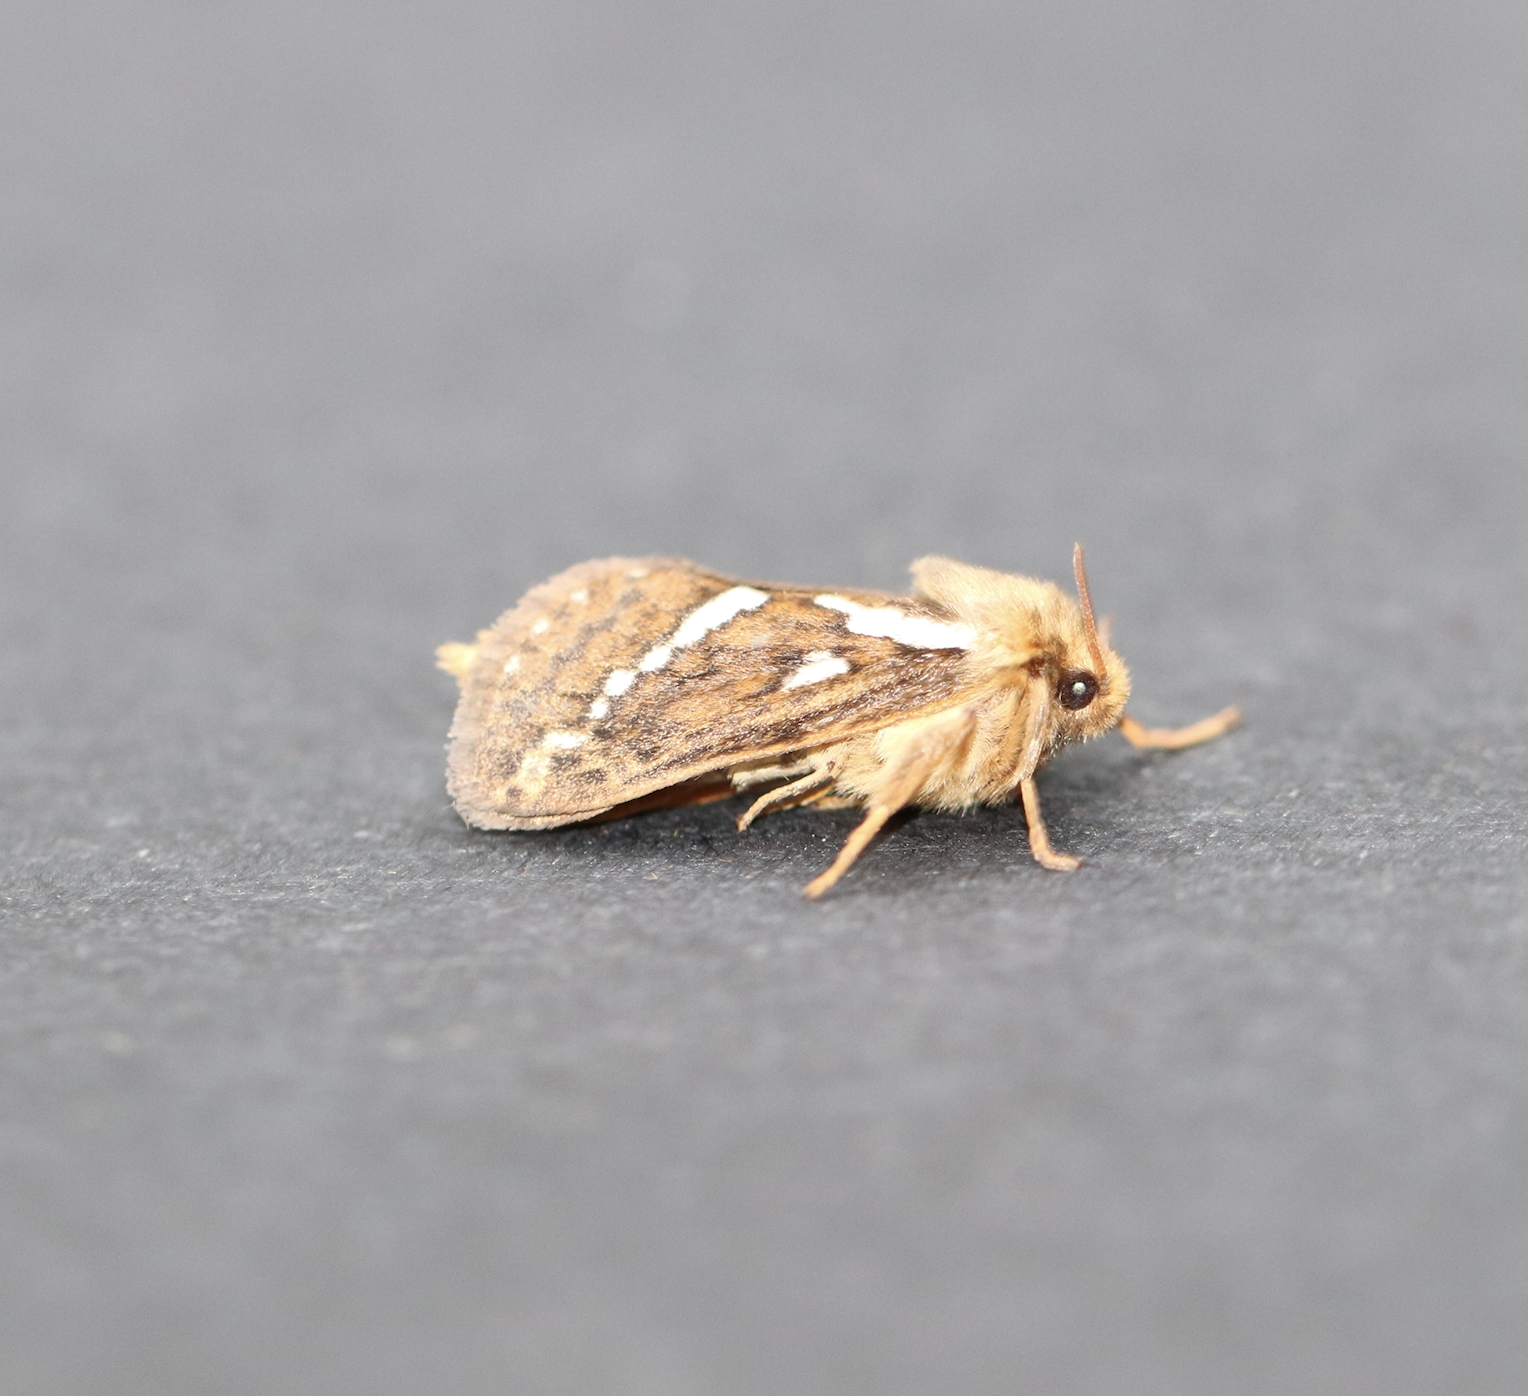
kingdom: Animalia
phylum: Arthropoda
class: Insecta
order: Lepidoptera
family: Hepialidae
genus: Korscheltellus
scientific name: Korscheltellus lupulina
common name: Common swift
